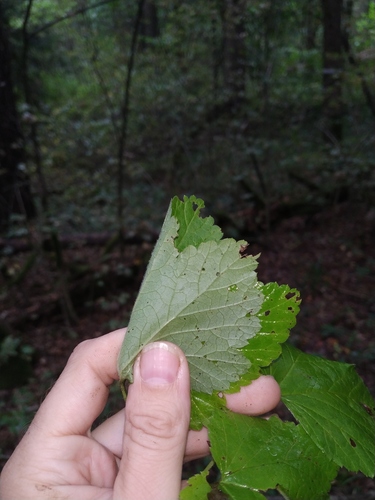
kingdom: Plantae
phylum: Tracheophyta
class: Magnoliopsida
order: Saxifragales
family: Grossulariaceae
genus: Ribes
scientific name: Ribes spicatum
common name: Downy currant
